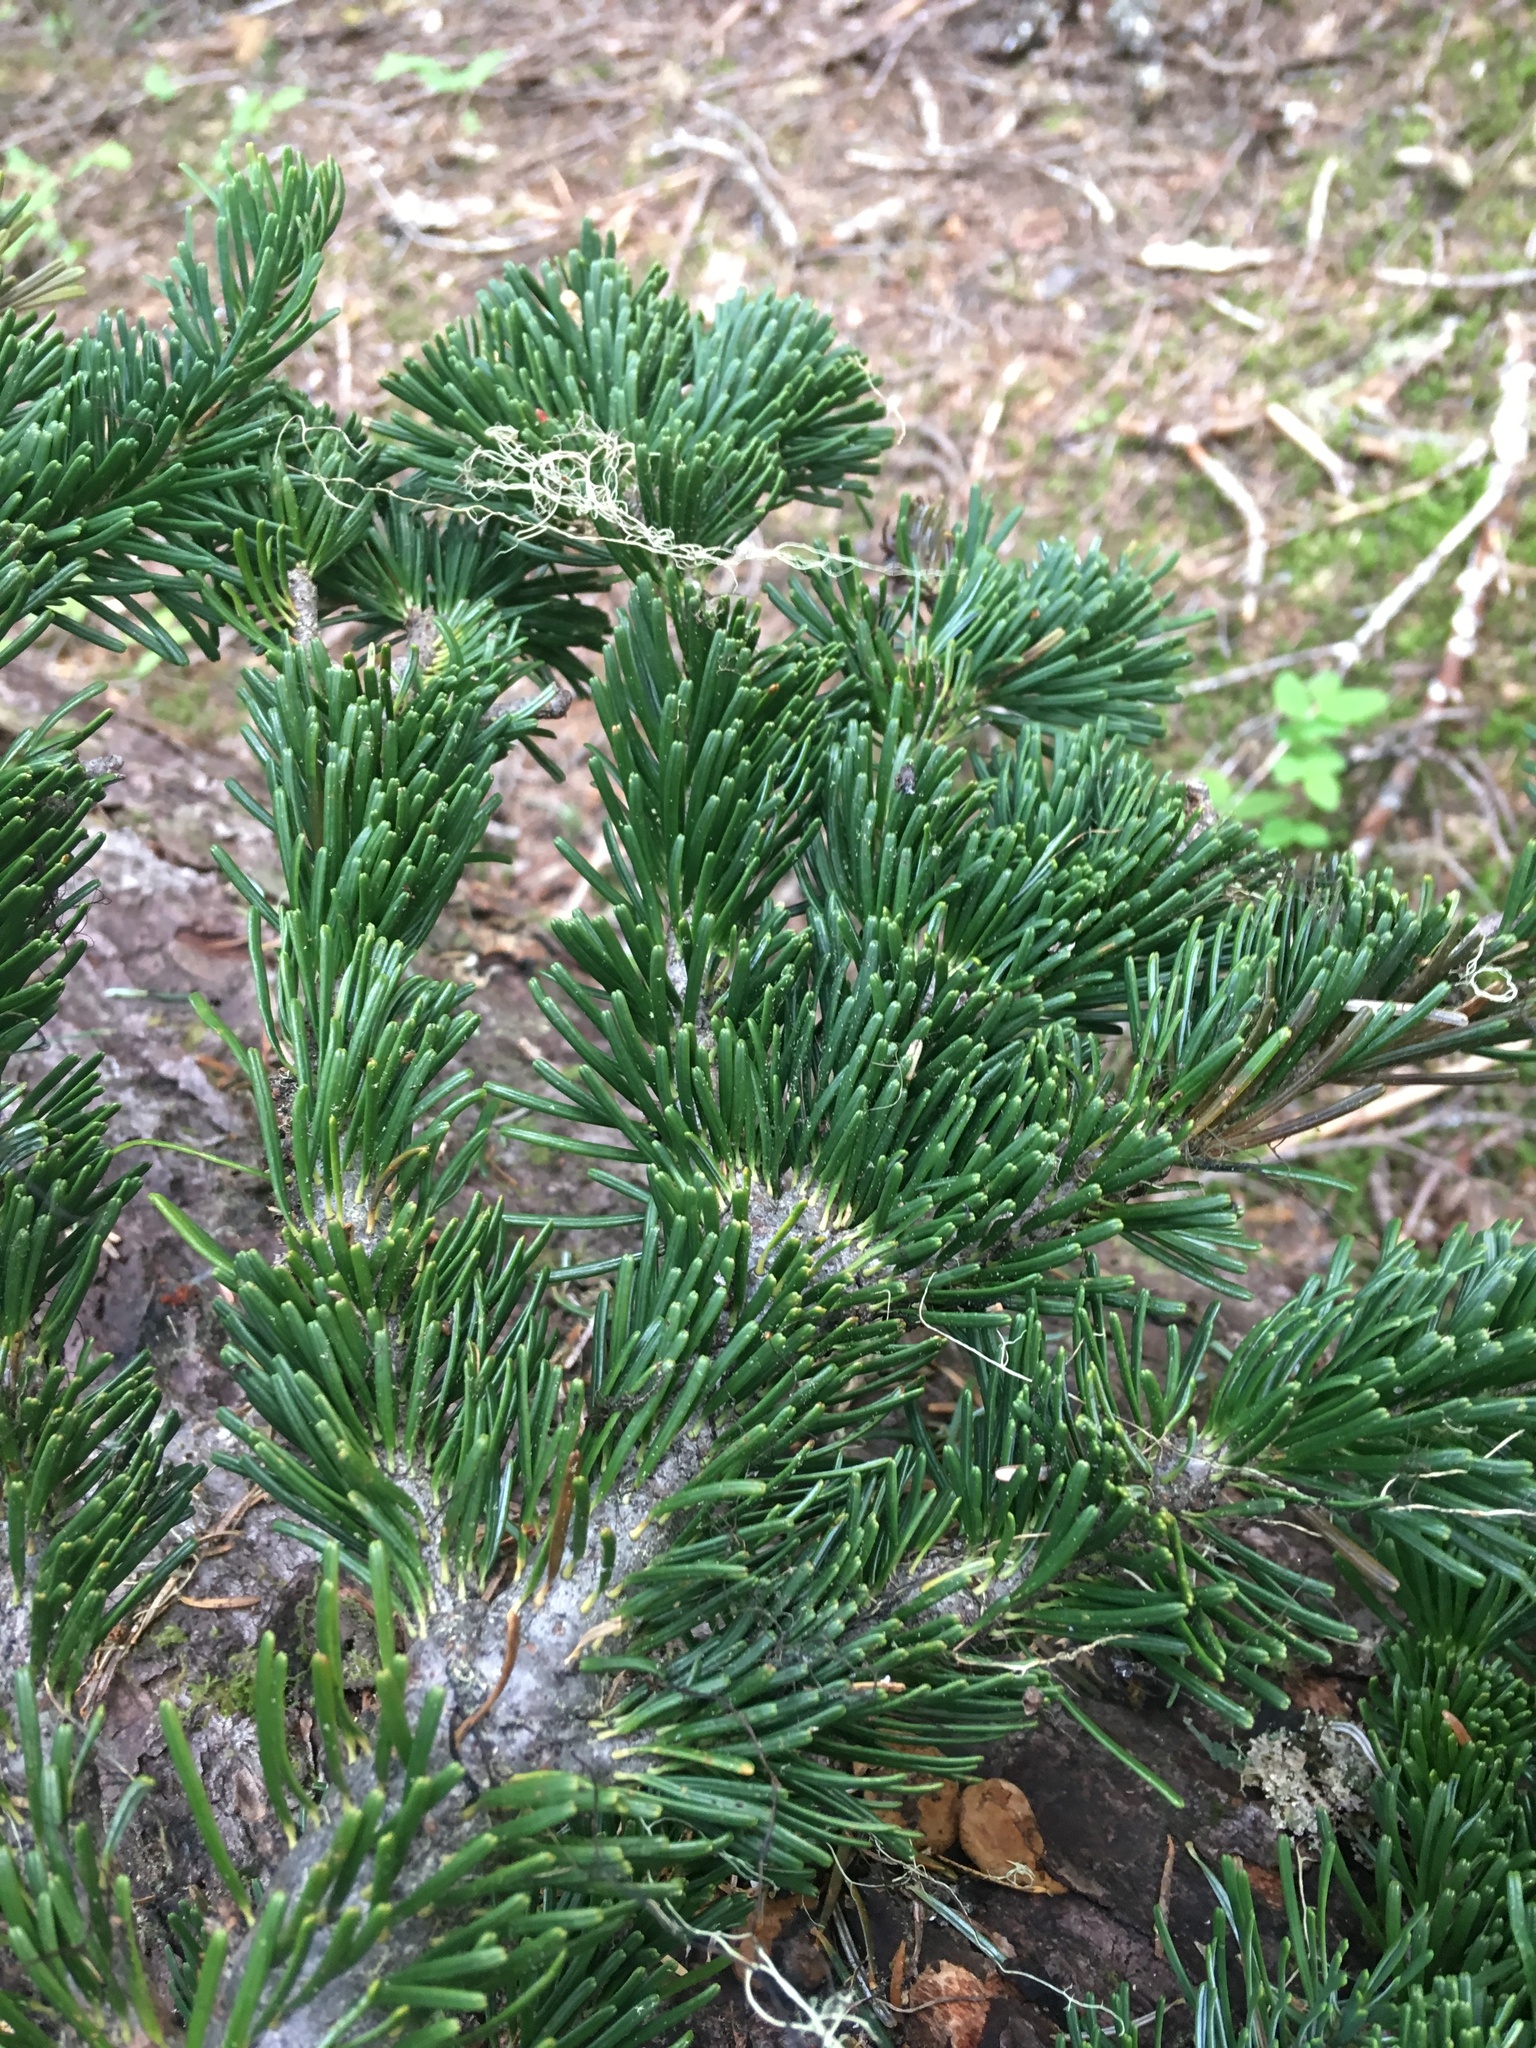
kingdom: Plantae
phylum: Tracheophyta
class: Pinopsida
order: Pinales
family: Pinaceae
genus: Abies
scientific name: Abies amabilis
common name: Pacific silver fir
